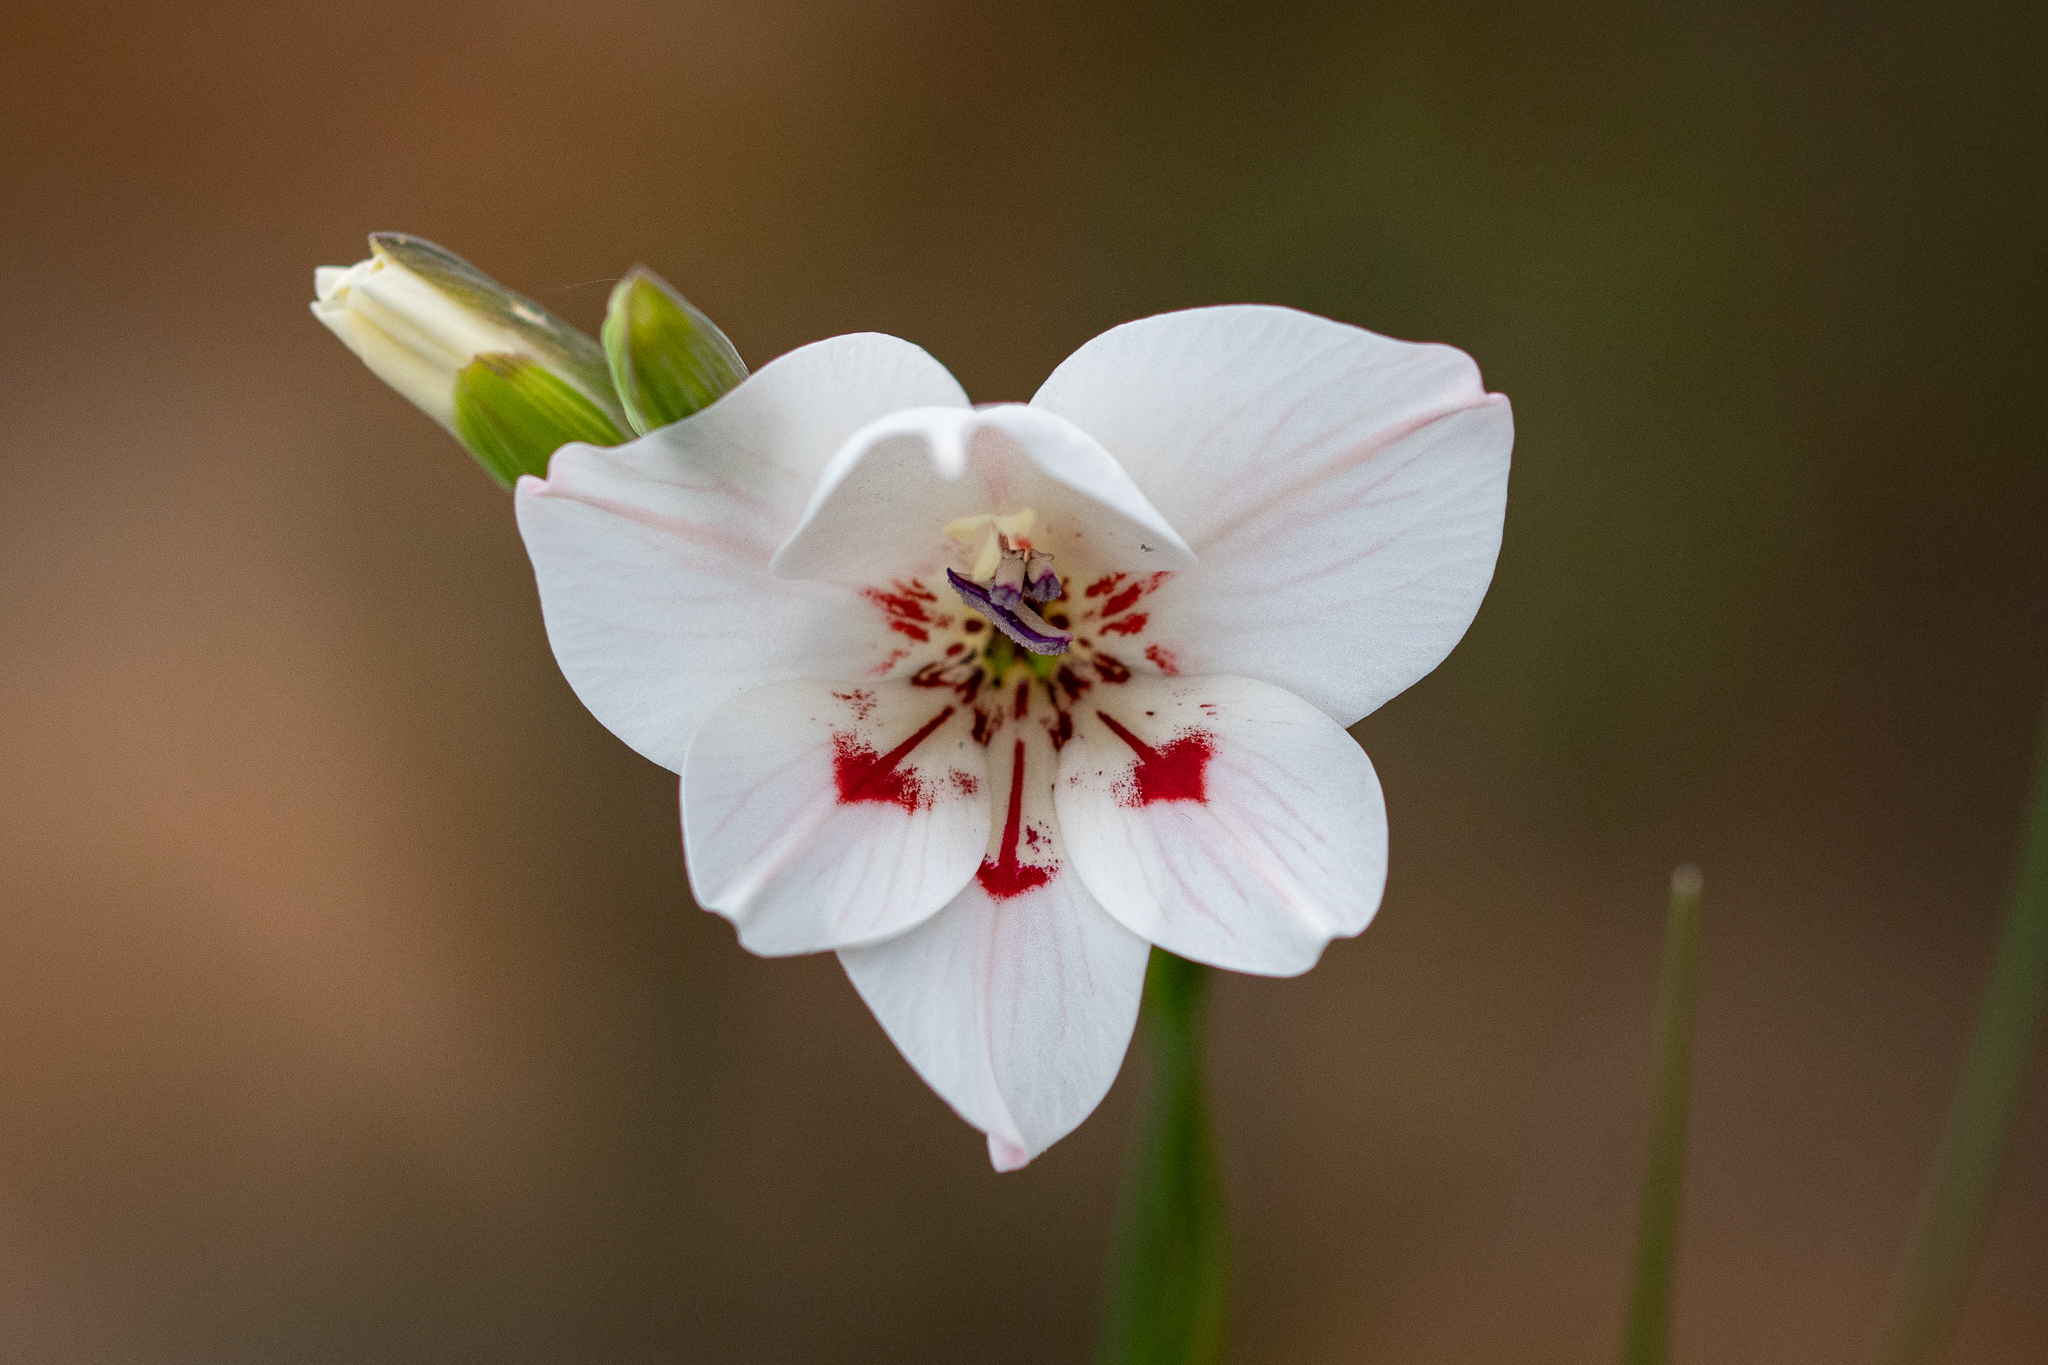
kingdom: Plantae
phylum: Tracheophyta
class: Liliopsida
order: Asparagales
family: Iridaceae
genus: Gladiolus
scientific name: Gladiolus debilis
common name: Painted-lady
